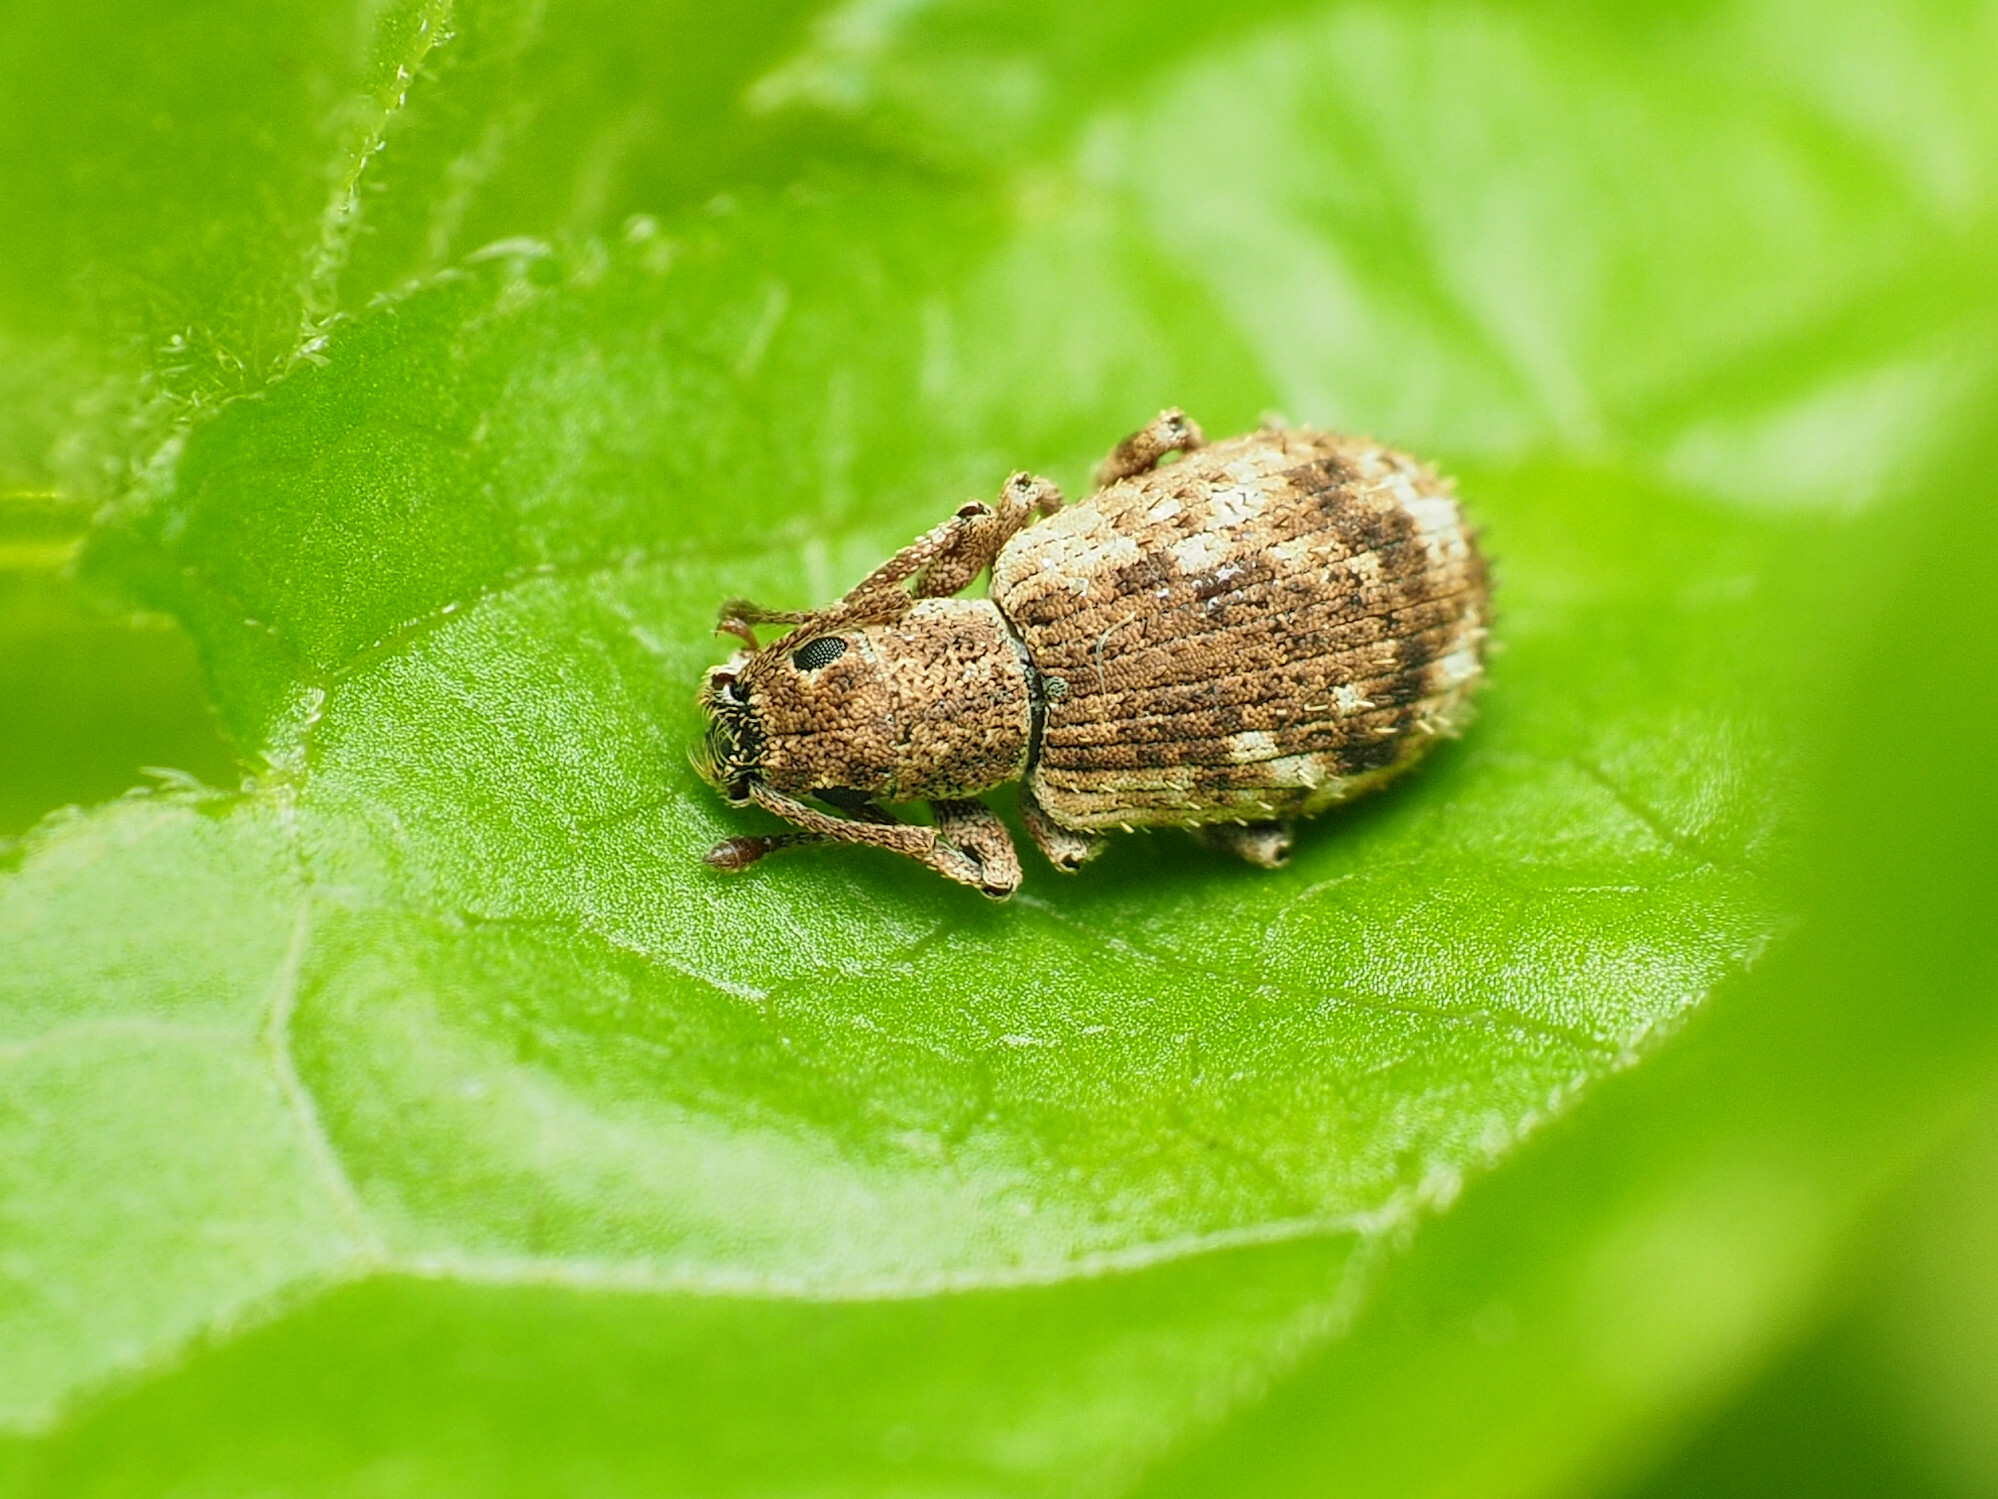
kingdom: Animalia
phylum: Arthropoda
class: Insecta
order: Coleoptera
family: Curculionidae
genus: Pseudoedophrys
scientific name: Pseudoedophrys hilleri
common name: Weevil
